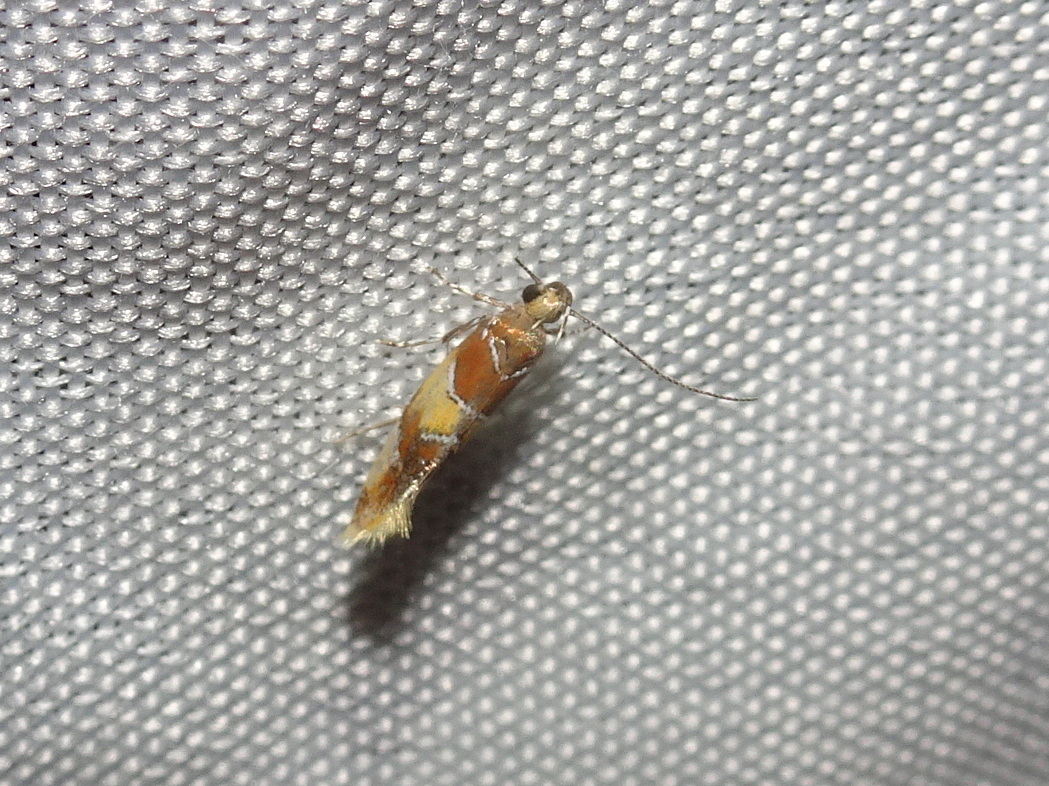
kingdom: Animalia
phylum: Arthropoda
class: Insecta
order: Lepidoptera
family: Oecophoridae
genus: Callima
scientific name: Callima argenticinctella
